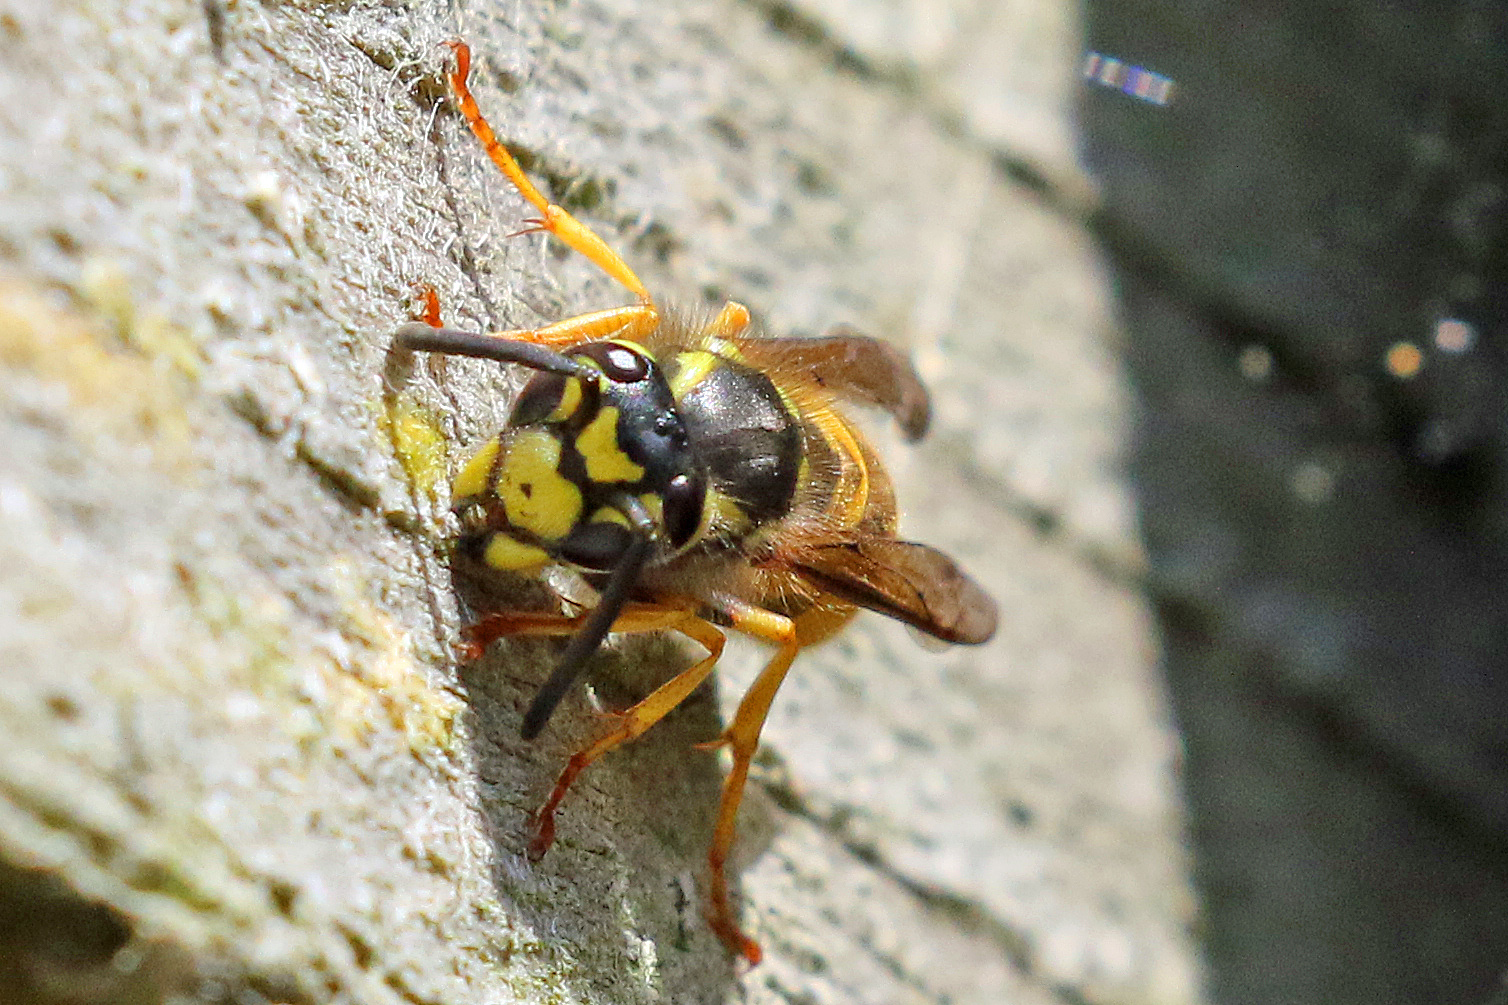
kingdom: Animalia
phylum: Arthropoda
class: Insecta
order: Hymenoptera
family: Vespidae
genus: Vespula
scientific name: Vespula germanica
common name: German wasp
